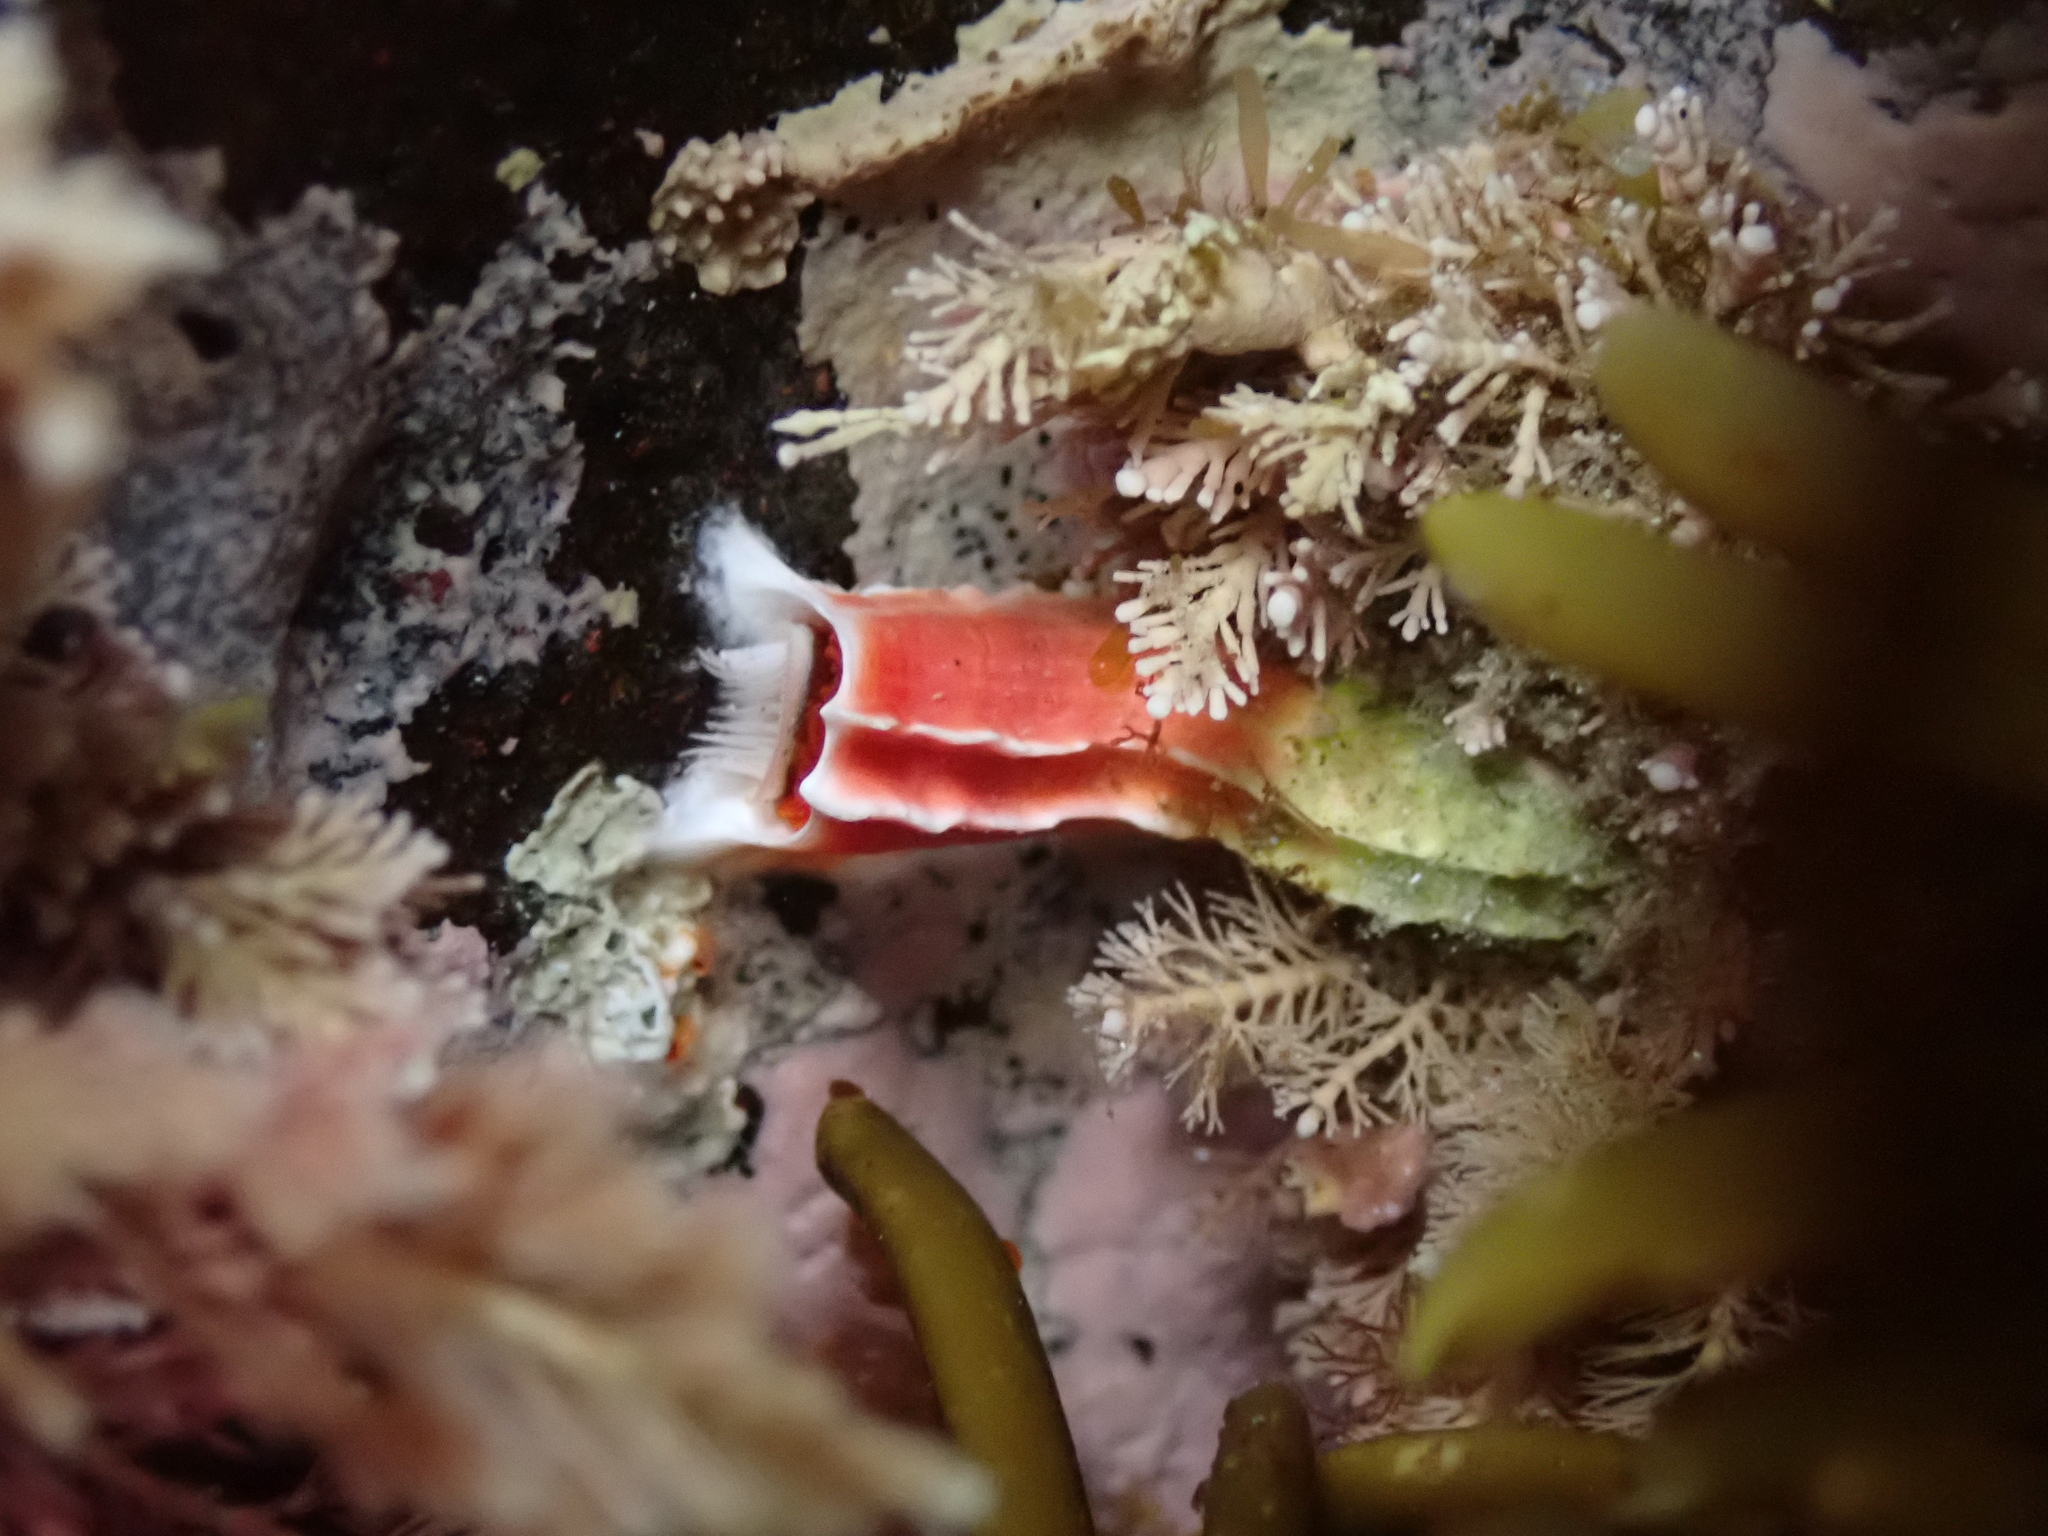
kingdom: Animalia
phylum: Annelida
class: Polychaeta
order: Sabellida
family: Serpulidae
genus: Galeolaria
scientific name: Galeolaria hystrix
